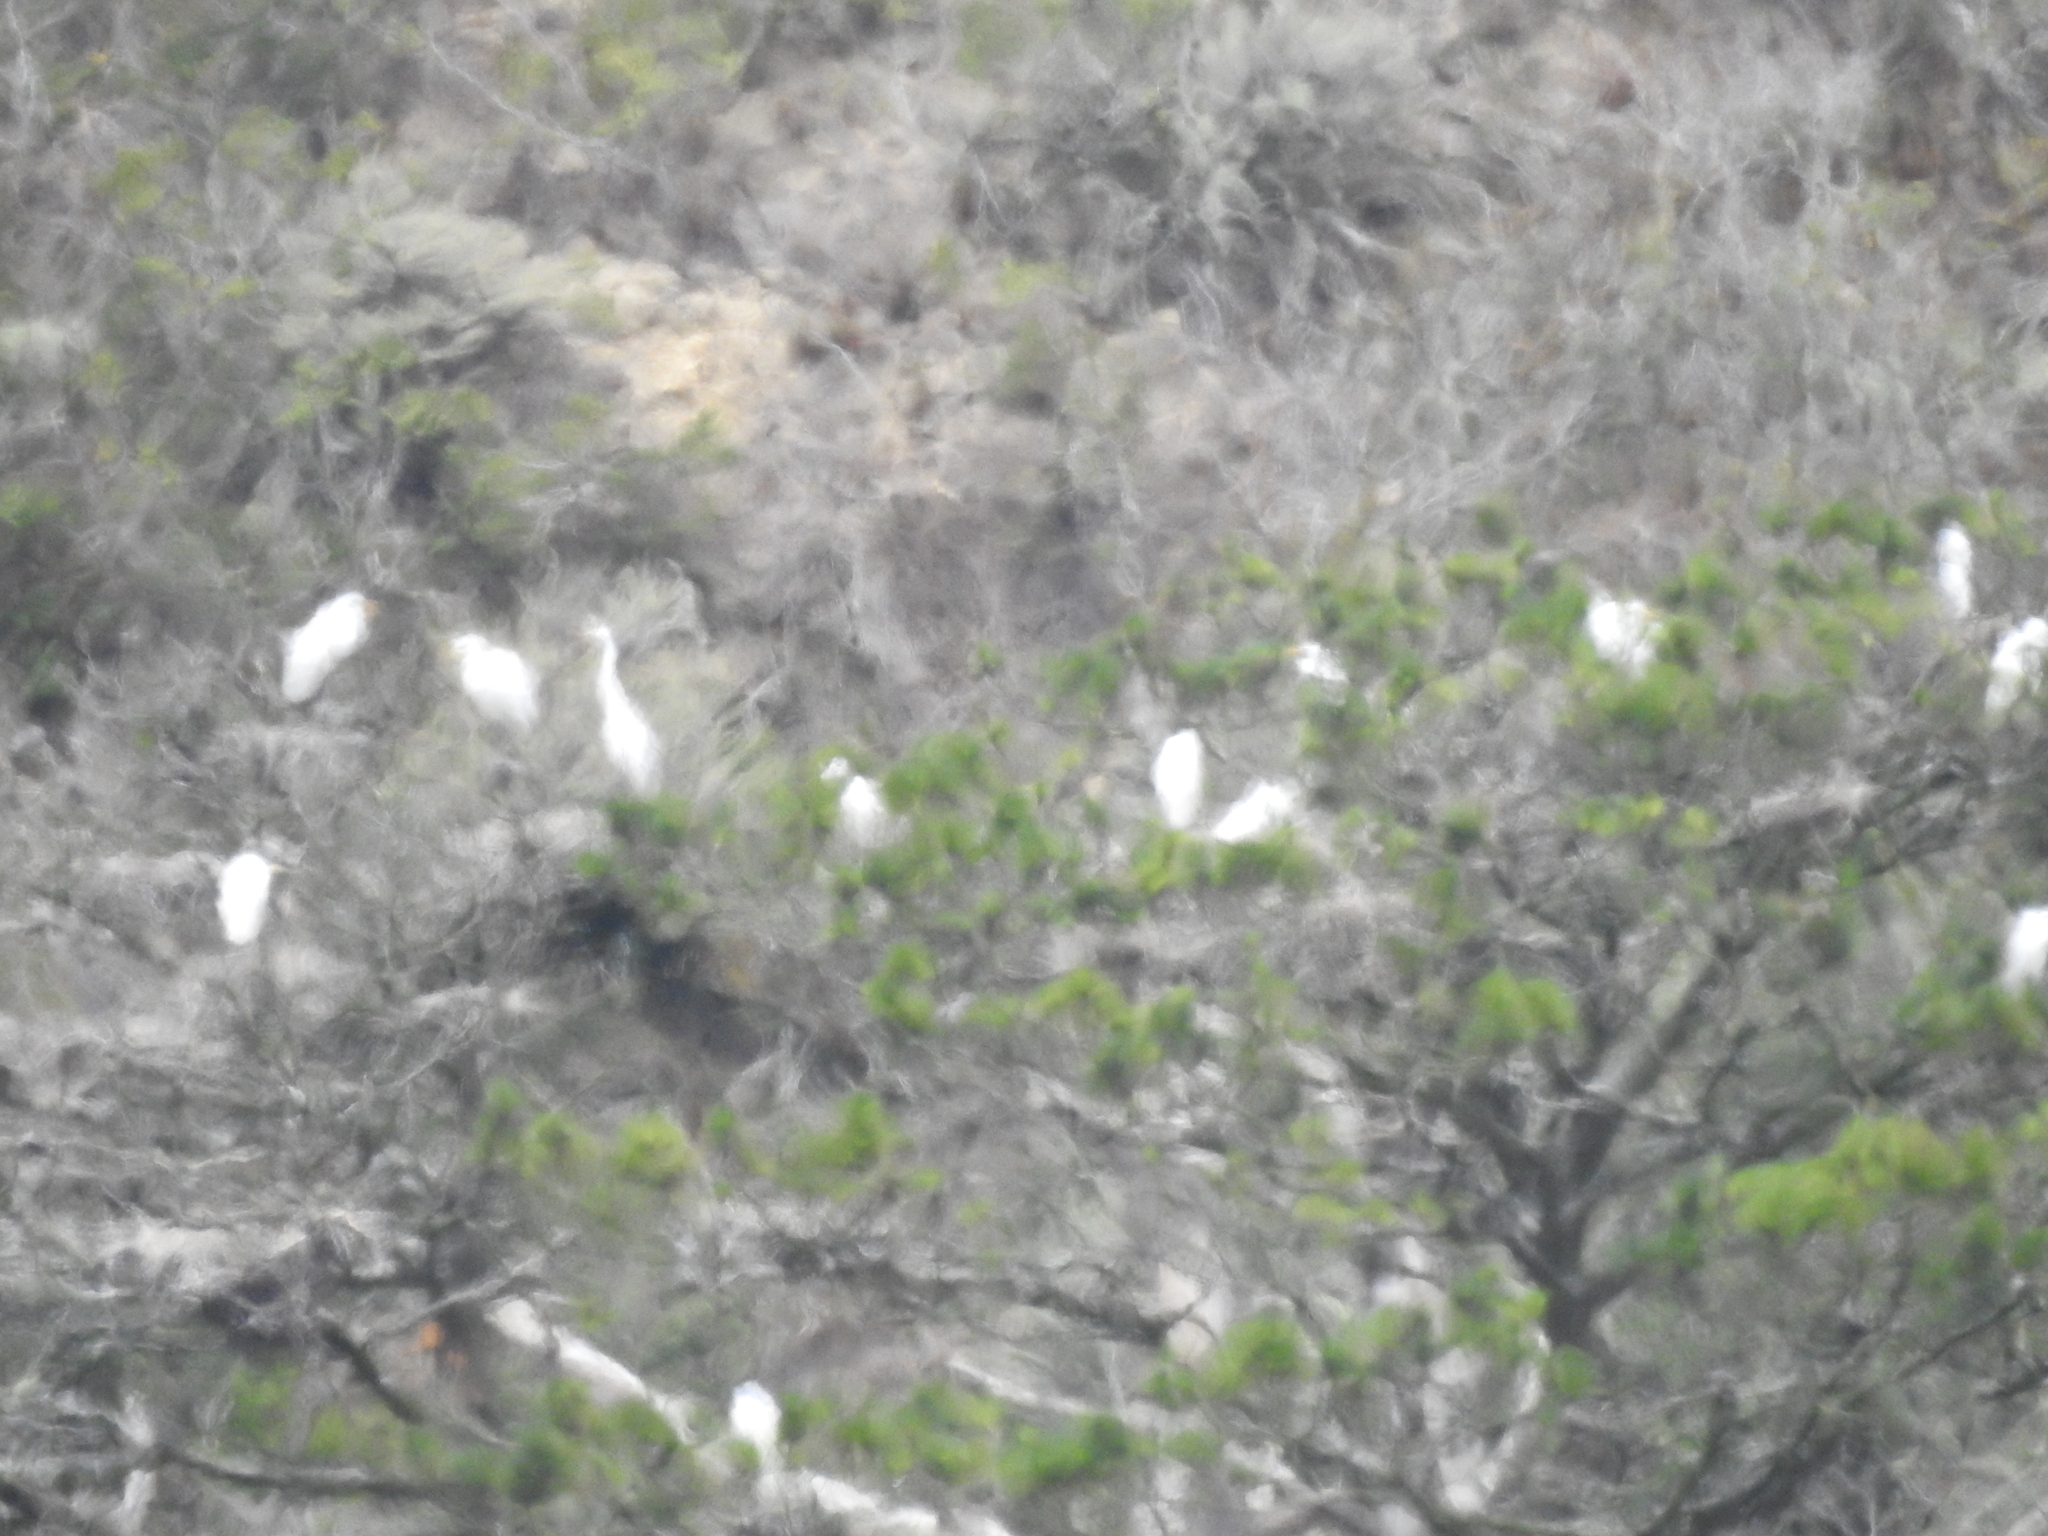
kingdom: Animalia
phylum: Chordata
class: Aves
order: Pelecaniformes
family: Ardeidae
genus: Ardea
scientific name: Ardea alba
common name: Great egret
